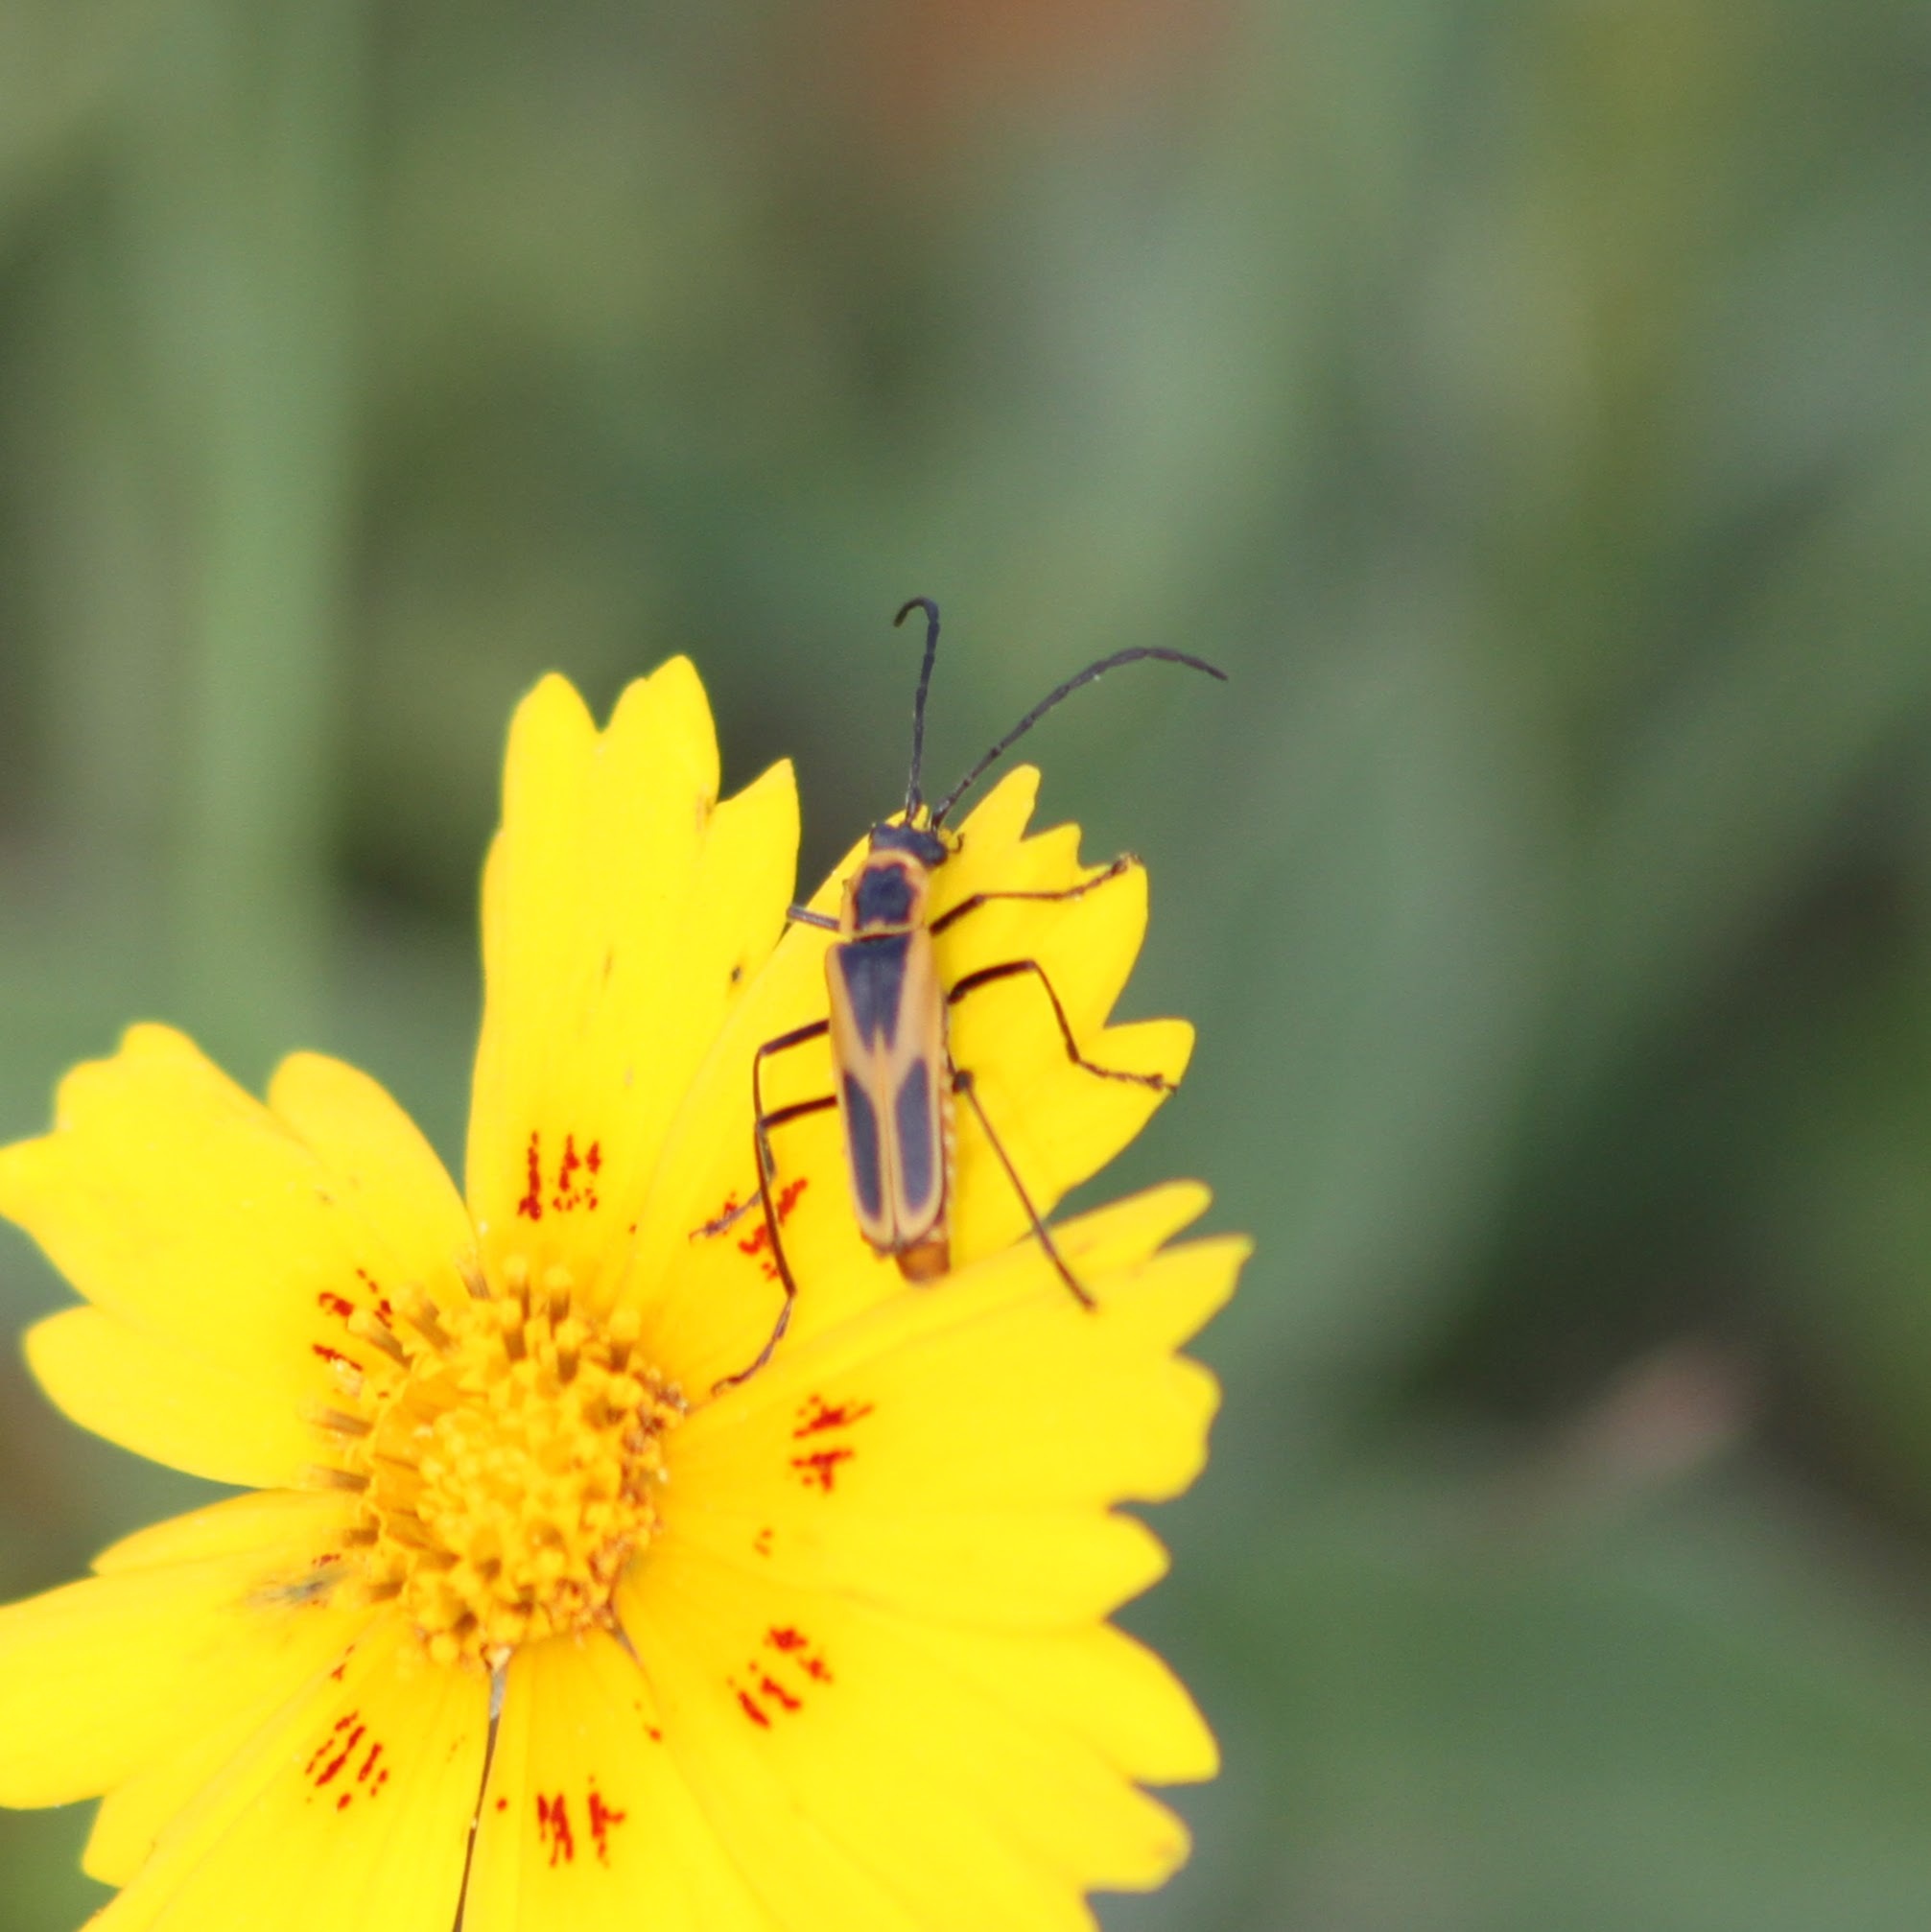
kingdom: Animalia
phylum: Arthropoda
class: Insecta
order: Coleoptera
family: Cantharidae
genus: Chauliognathus
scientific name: Chauliognathus scutellaris
